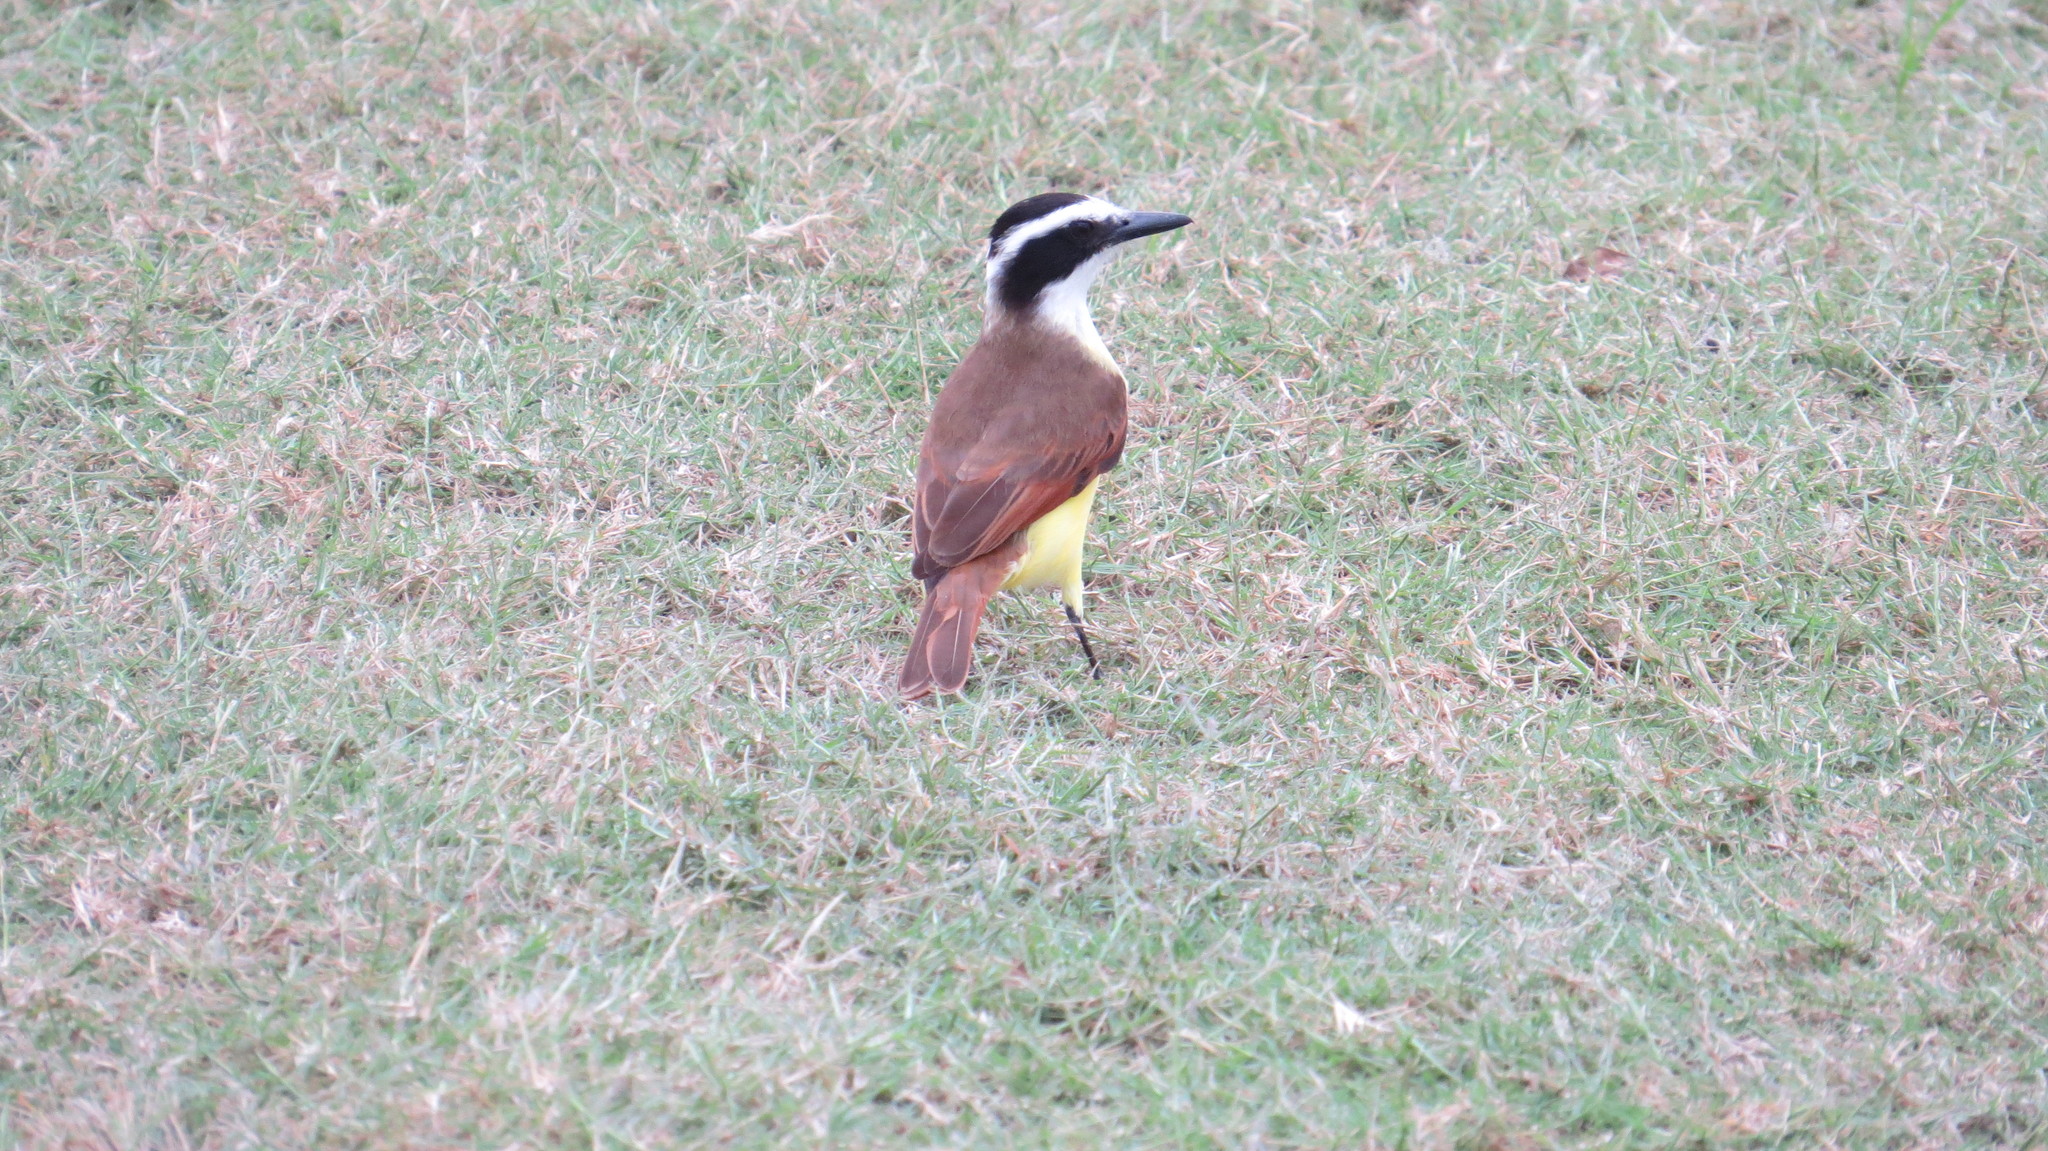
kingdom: Animalia
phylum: Chordata
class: Aves
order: Passeriformes
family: Tyrannidae
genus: Pitangus
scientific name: Pitangus sulphuratus
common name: Great kiskadee
